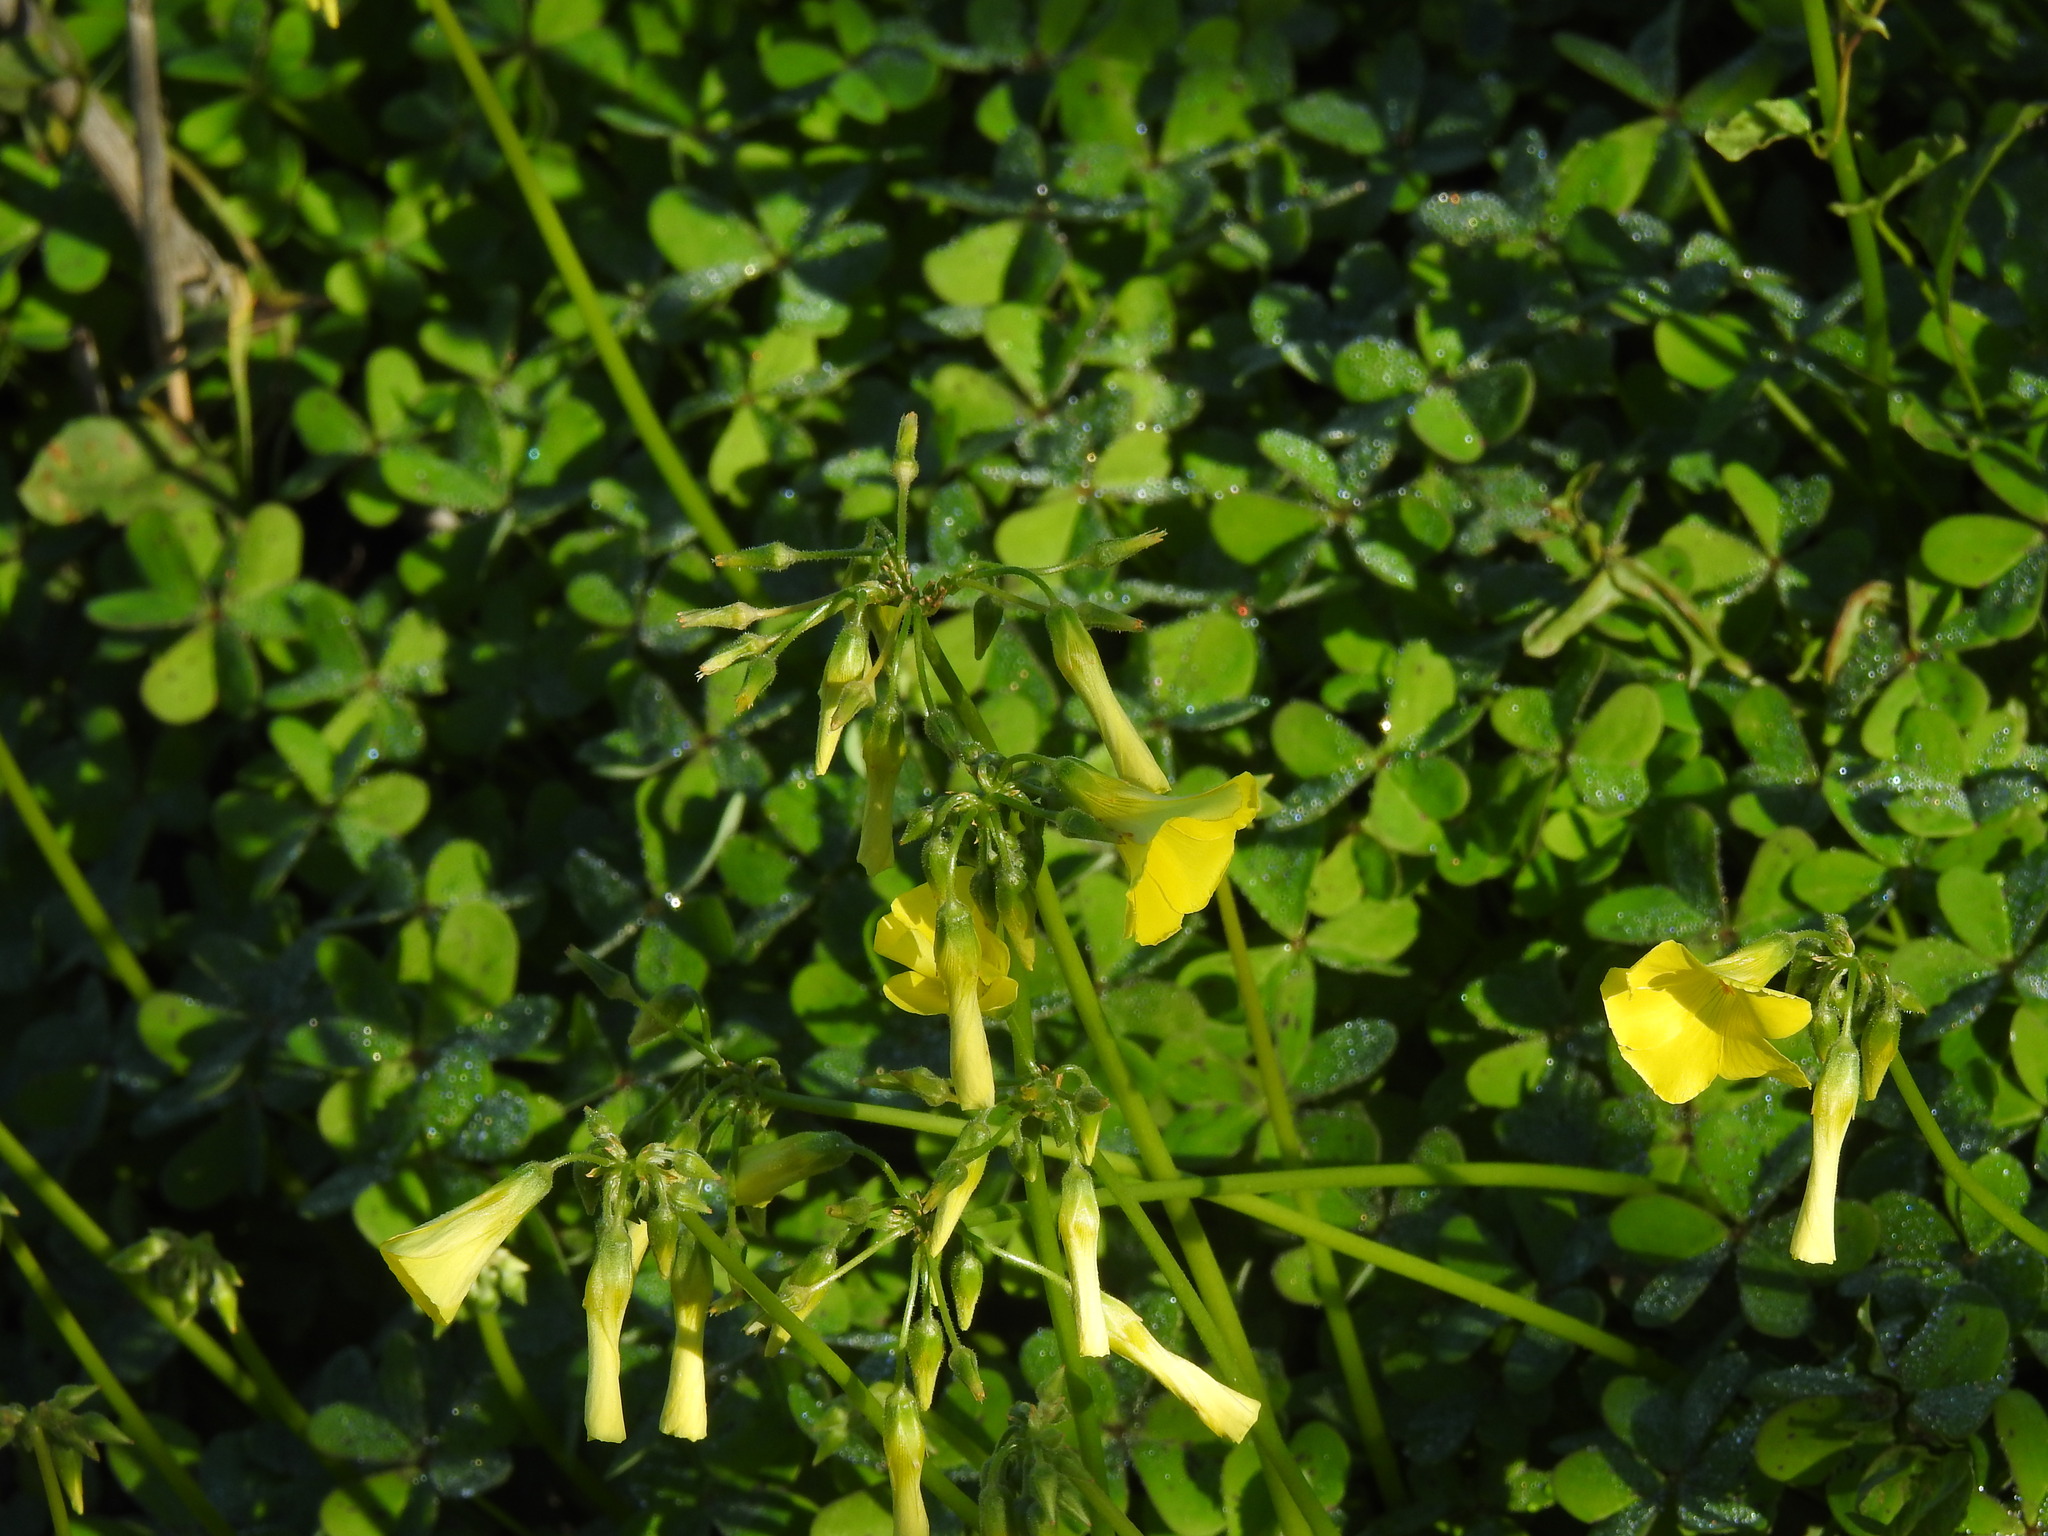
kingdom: Plantae
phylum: Tracheophyta
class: Magnoliopsida
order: Oxalidales
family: Oxalidaceae
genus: Oxalis
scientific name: Oxalis pes-caprae
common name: Bermuda-buttercup
